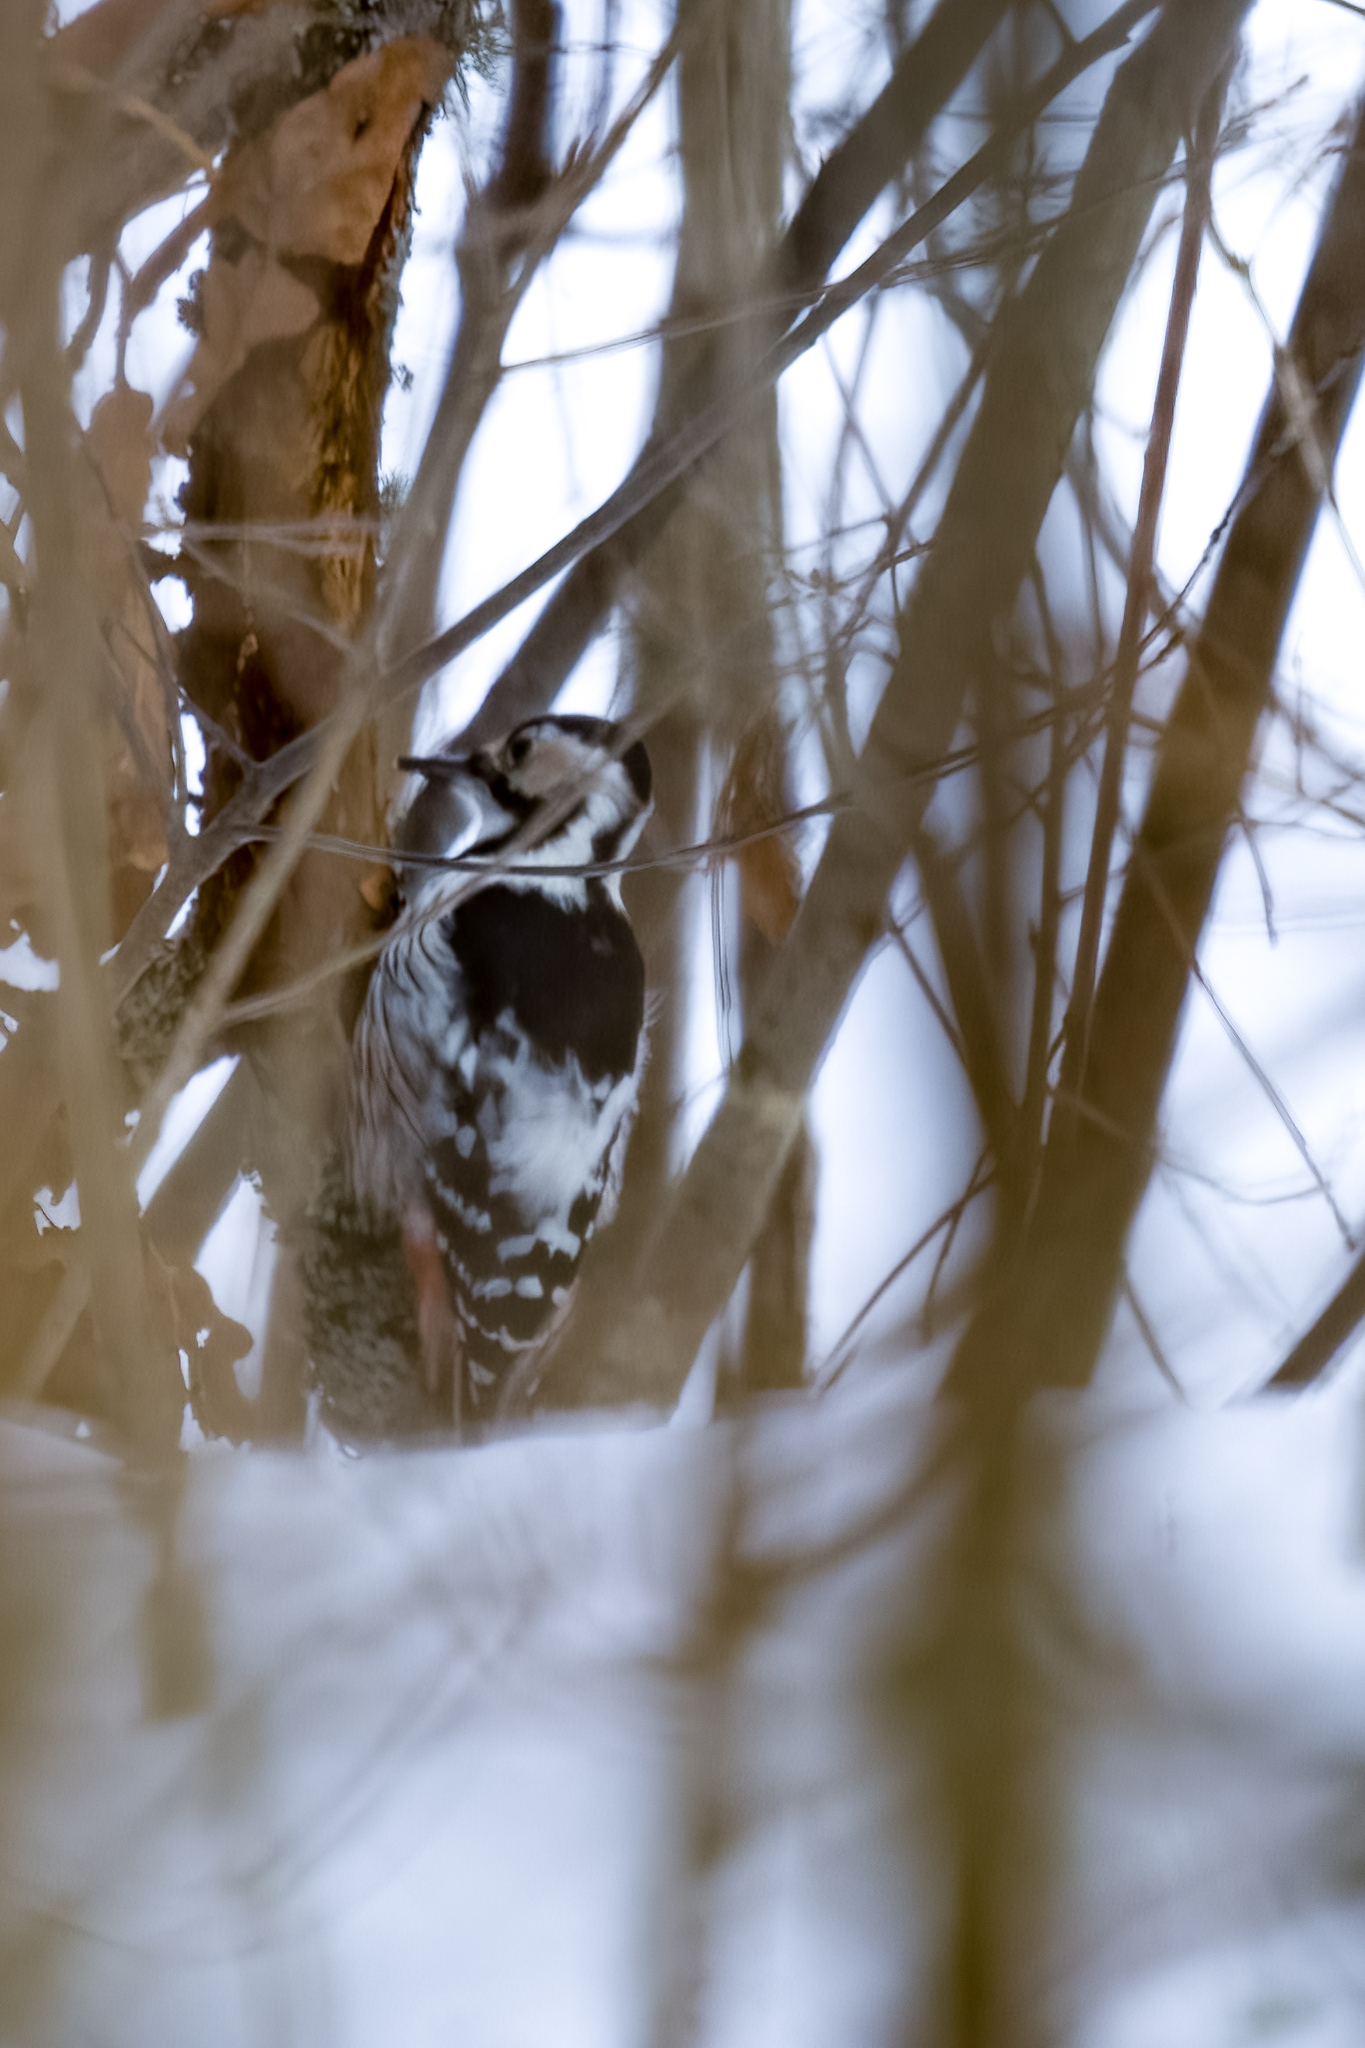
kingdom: Animalia
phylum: Chordata
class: Aves
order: Piciformes
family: Picidae
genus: Dendrocopos
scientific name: Dendrocopos leucotos
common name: White-backed woodpecker
